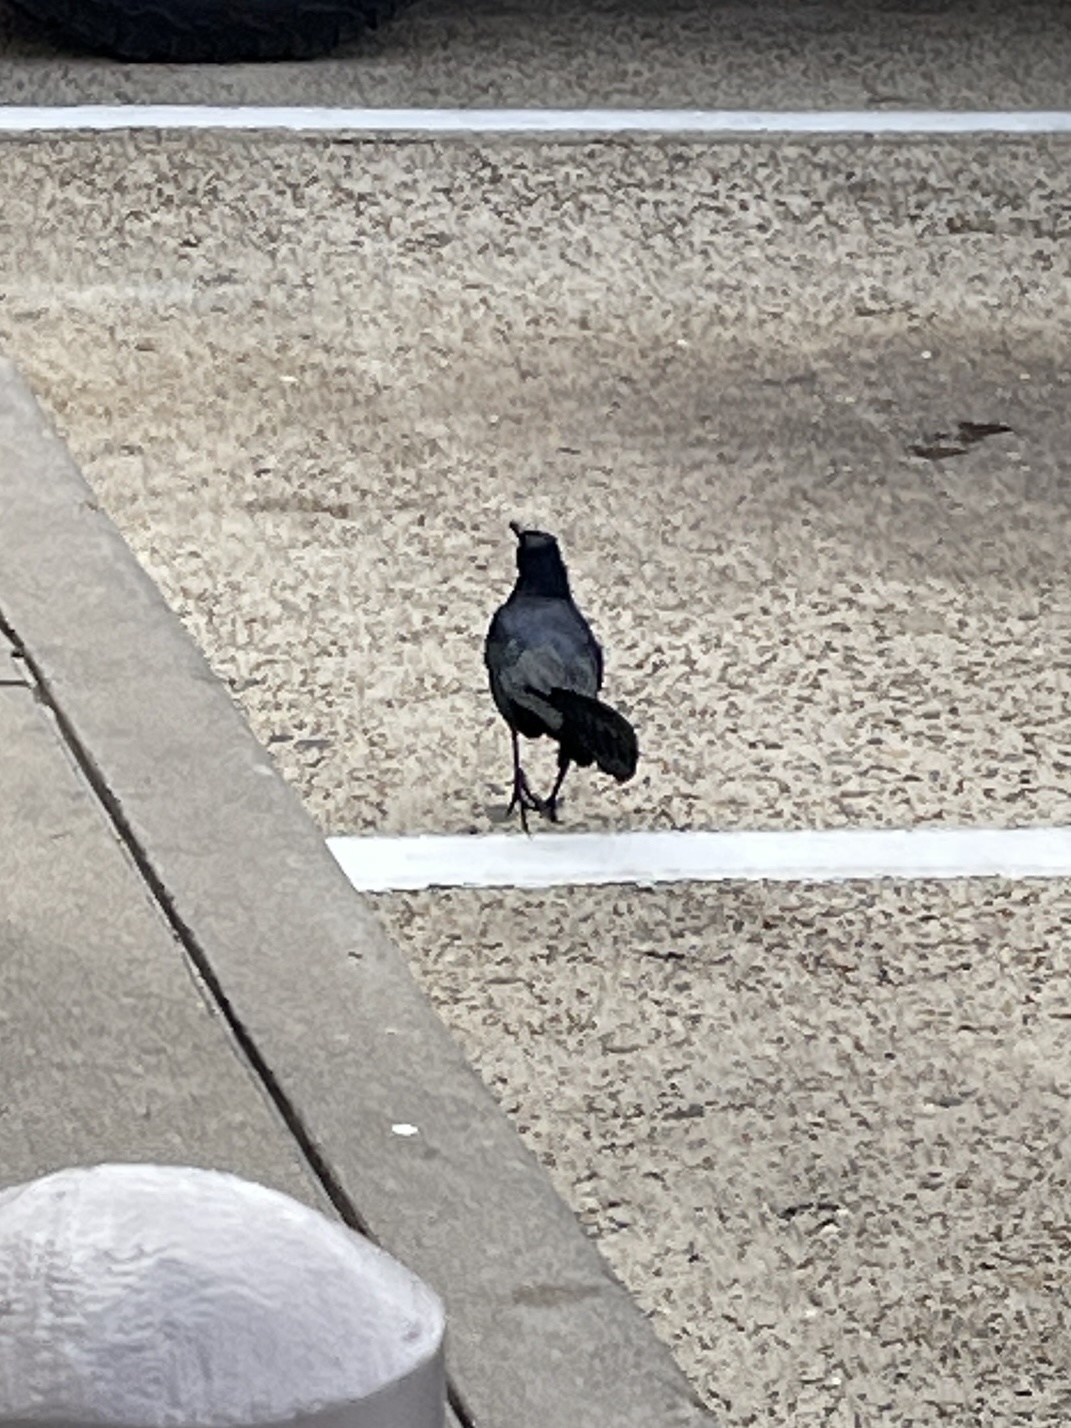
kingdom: Animalia
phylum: Chordata
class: Aves
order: Passeriformes
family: Icteridae
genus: Quiscalus
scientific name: Quiscalus mexicanus
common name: Great-tailed grackle
